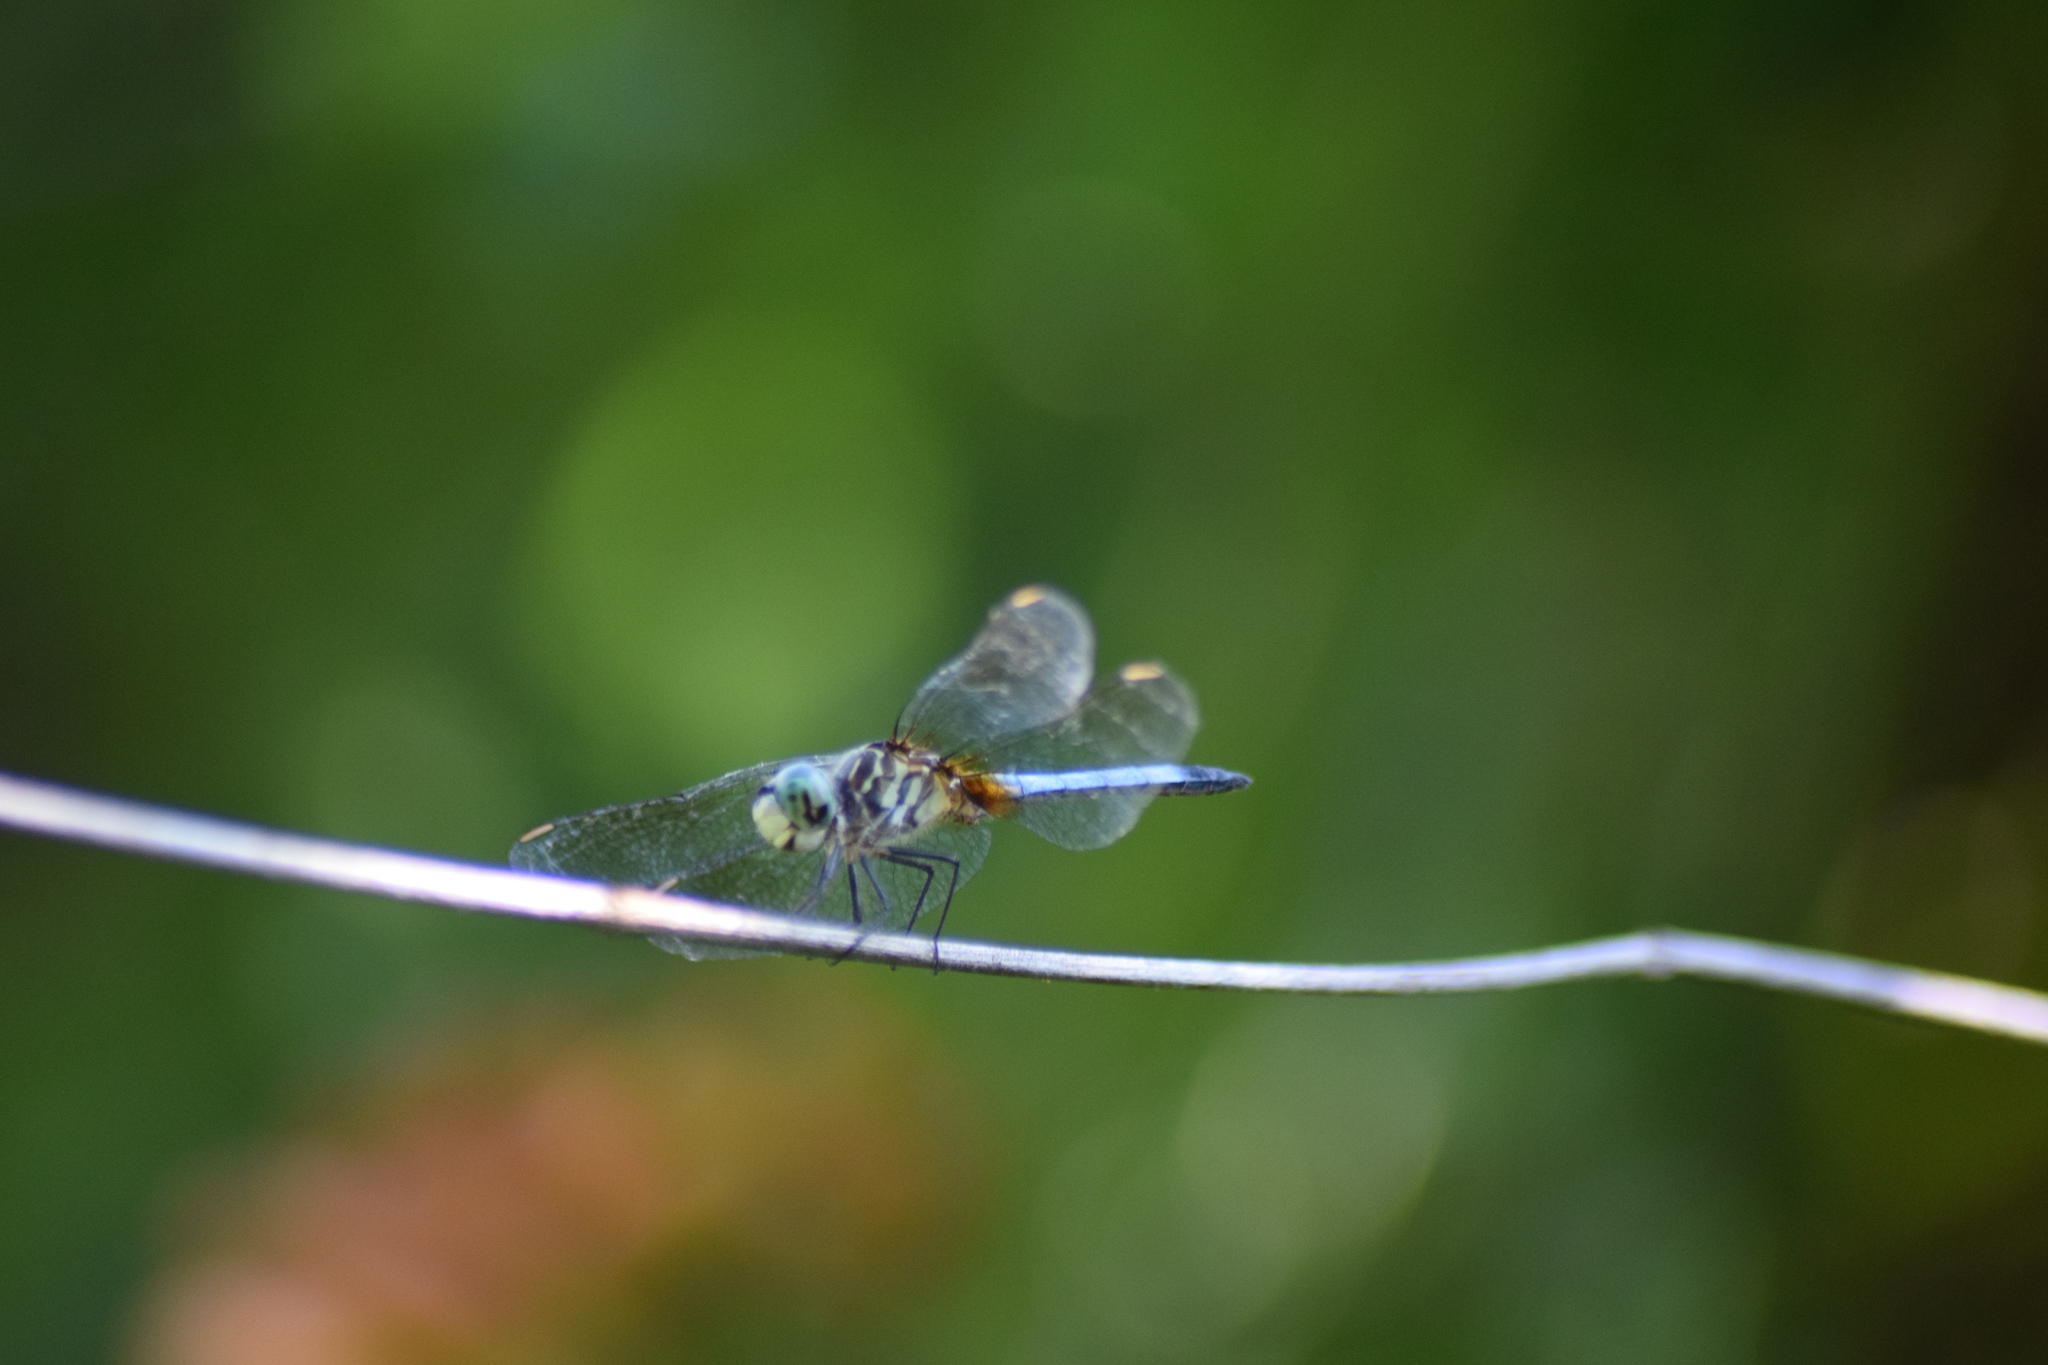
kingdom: Animalia
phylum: Arthropoda
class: Insecta
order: Odonata
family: Libellulidae
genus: Pachydiplax
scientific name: Pachydiplax longipennis
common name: Blue dasher
